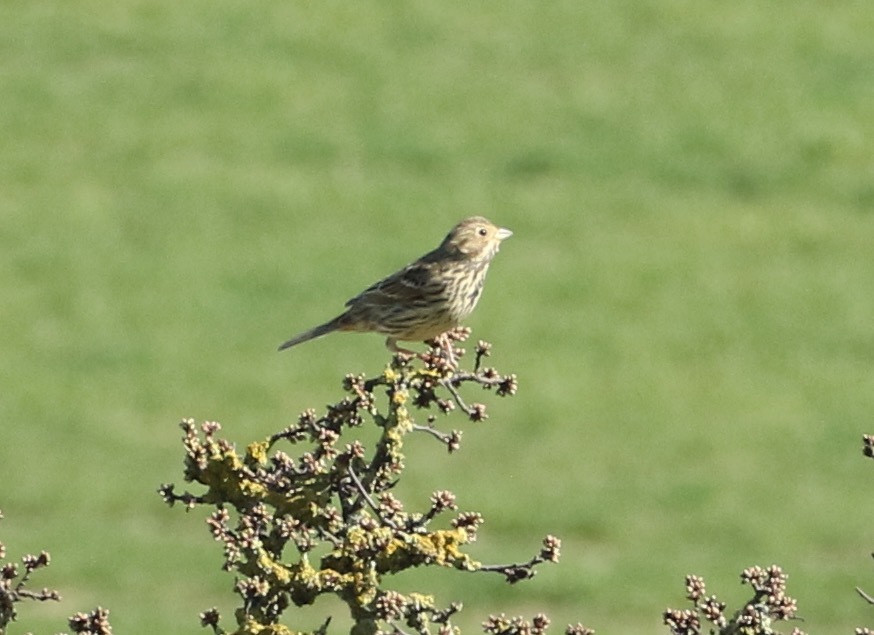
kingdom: Animalia
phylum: Chordata
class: Aves
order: Passeriformes
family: Emberizidae
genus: Emberiza
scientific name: Emberiza calandra
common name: Corn bunting
